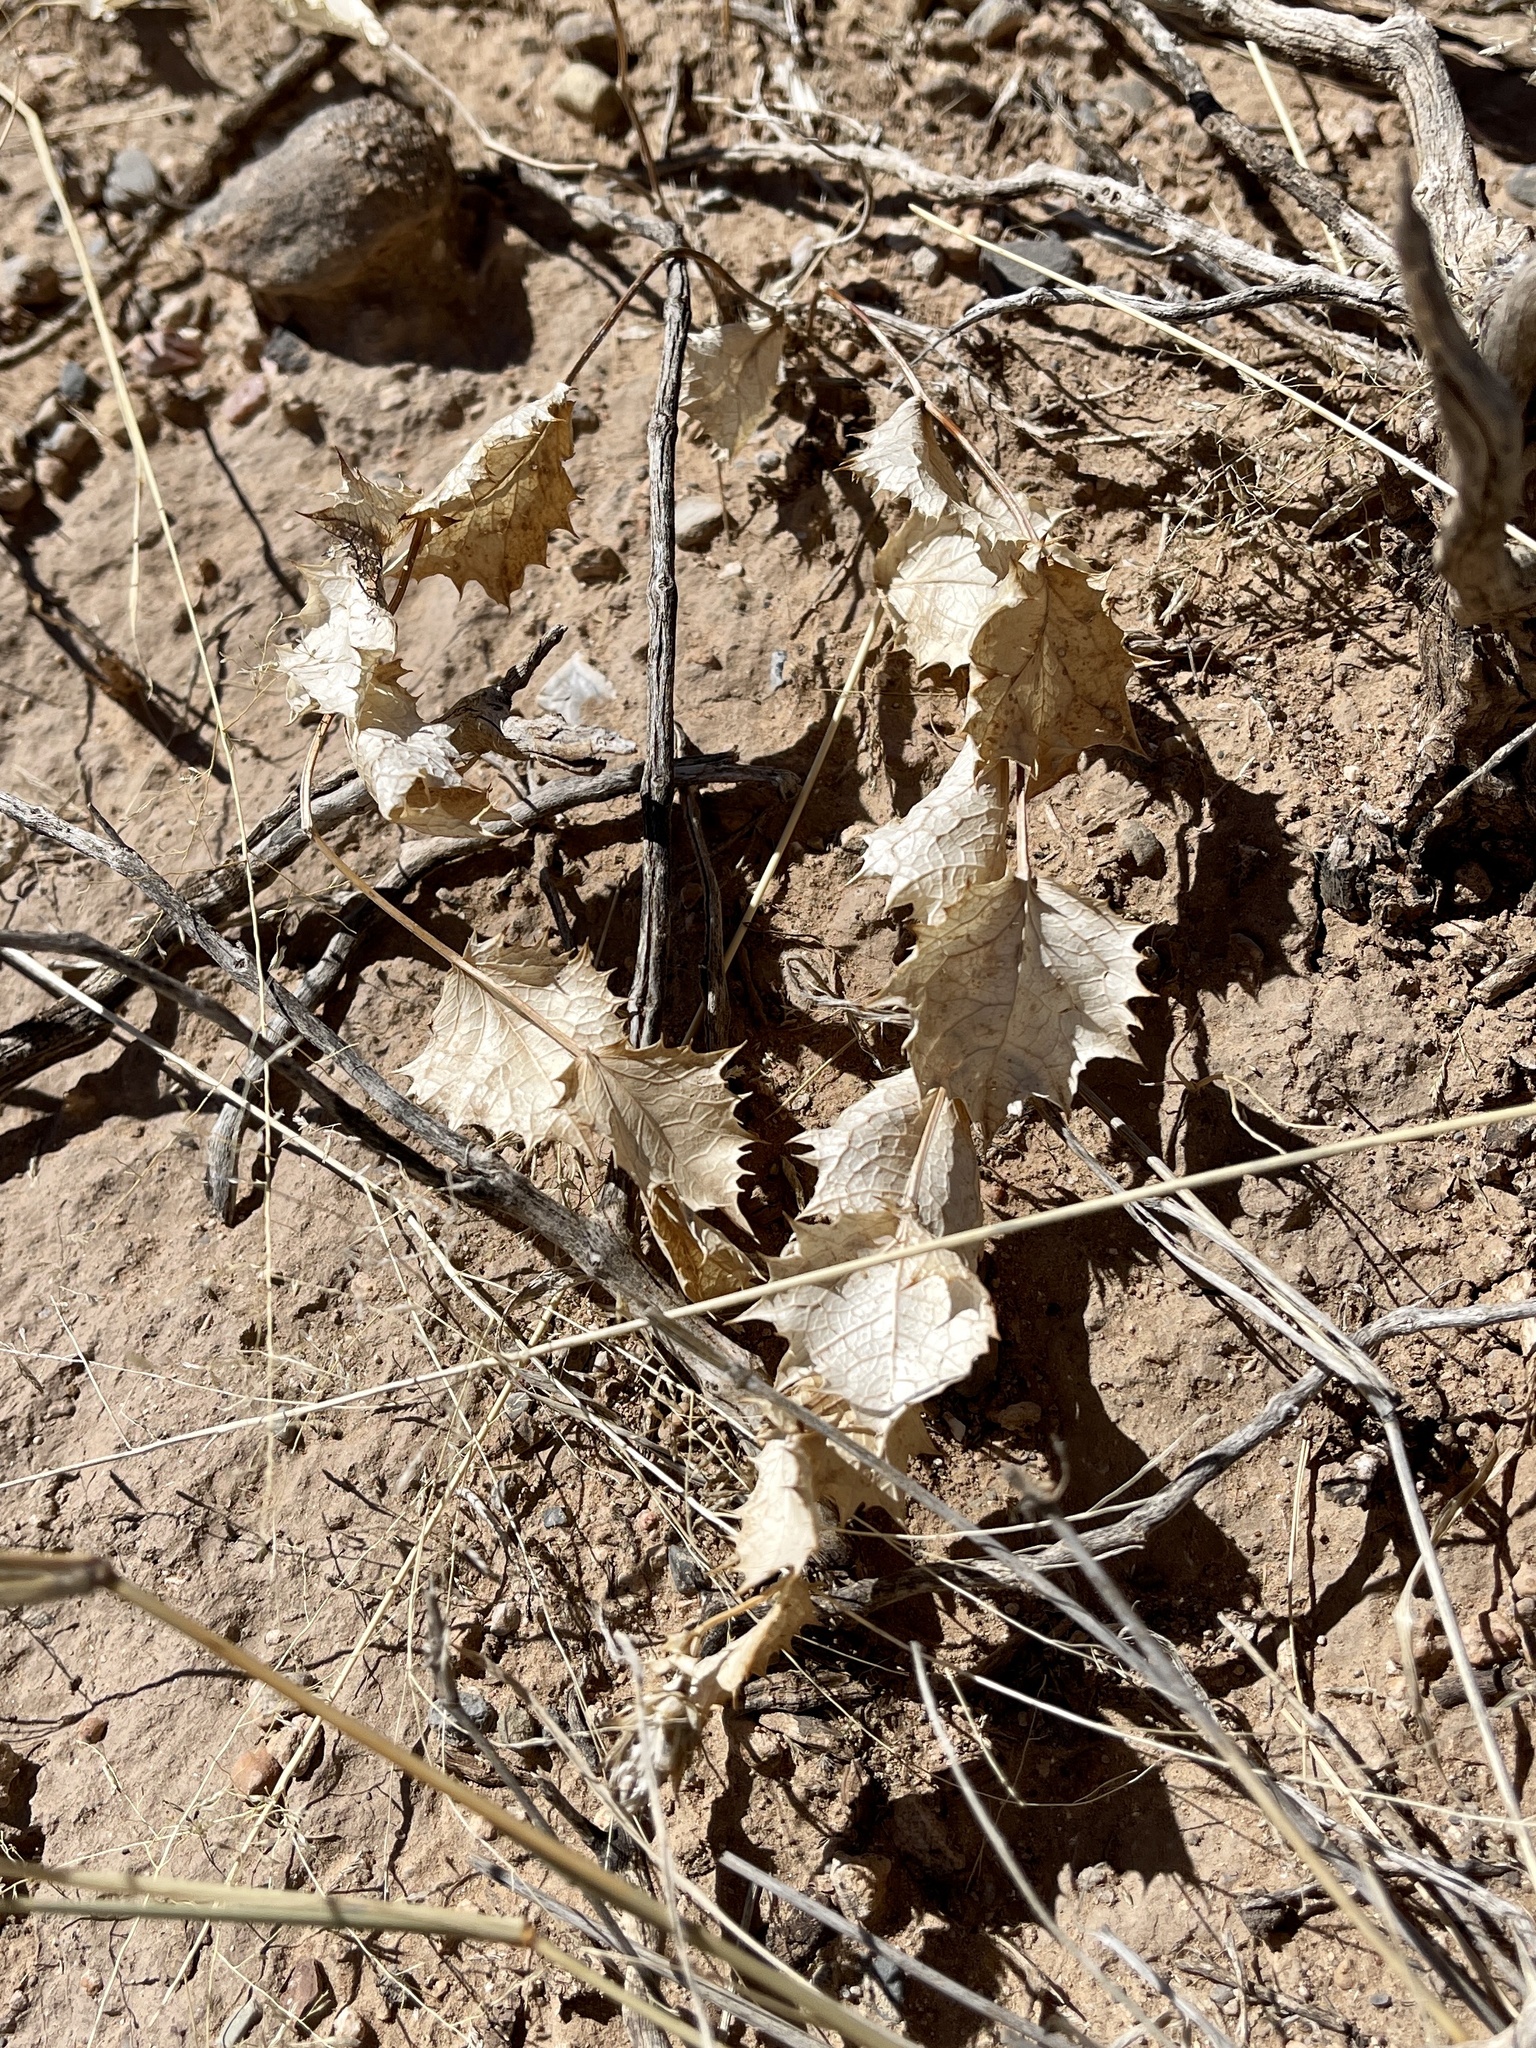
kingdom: Plantae
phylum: Tracheophyta
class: Magnoliopsida
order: Asterales
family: Asteraceae
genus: Acourtia
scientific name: Acourtia nana
